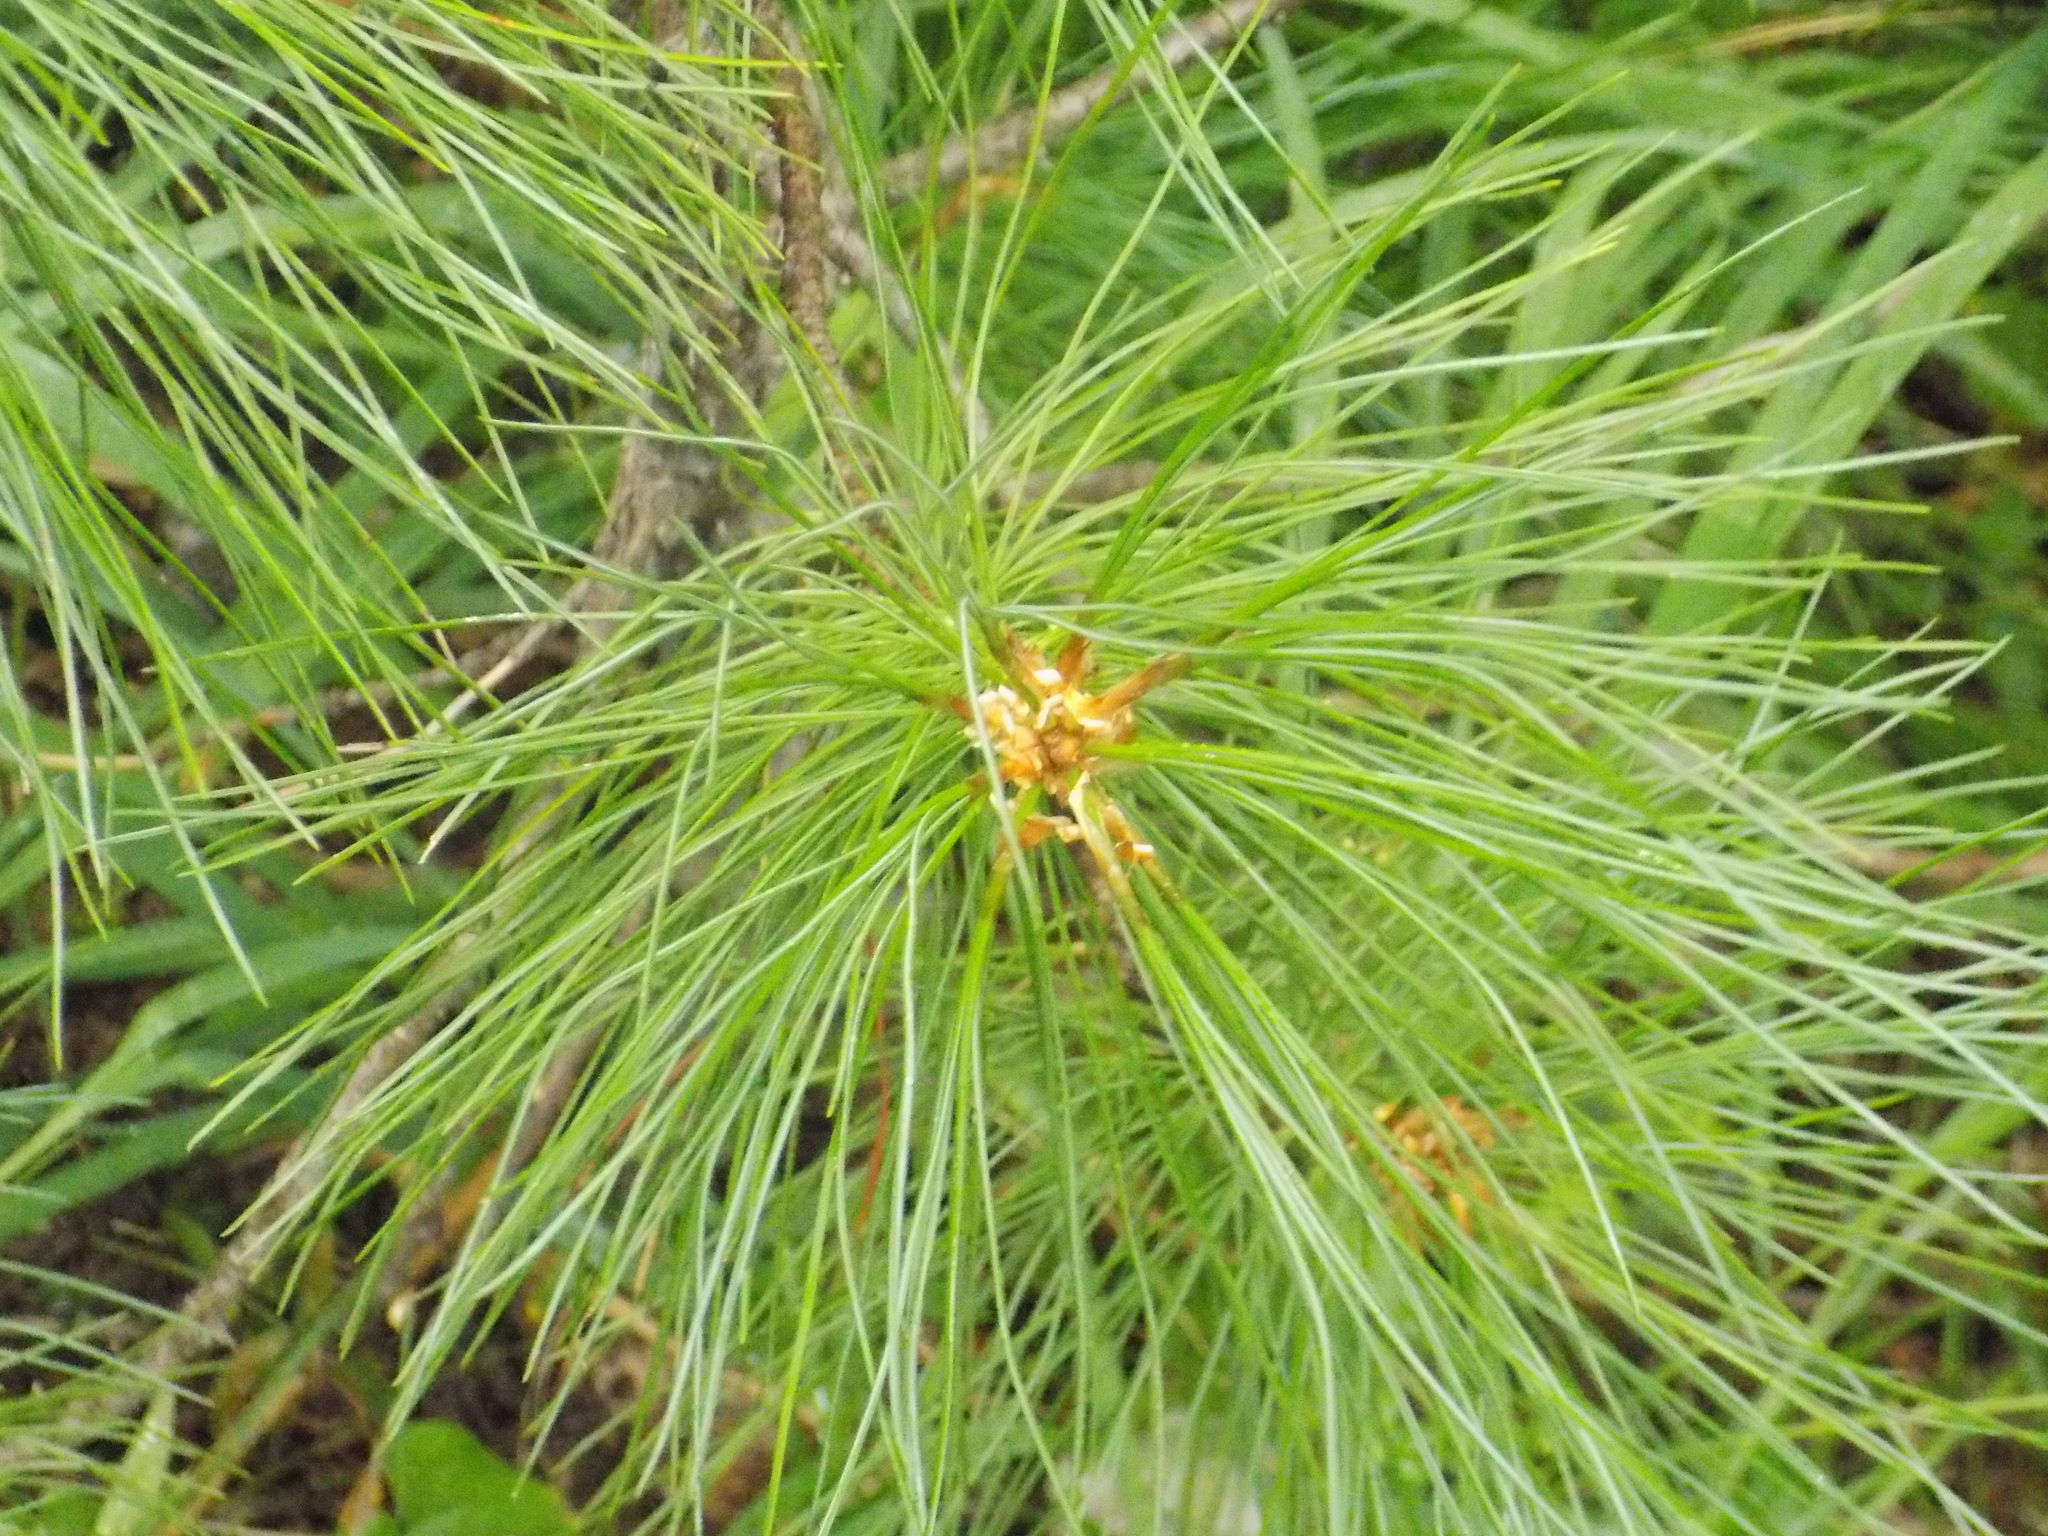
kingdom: Plantae
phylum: Tracheophyta
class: Pinopsida
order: Pinales
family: Pinaceae
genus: Pinus
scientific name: Pinus sibirica
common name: Siberian pine
